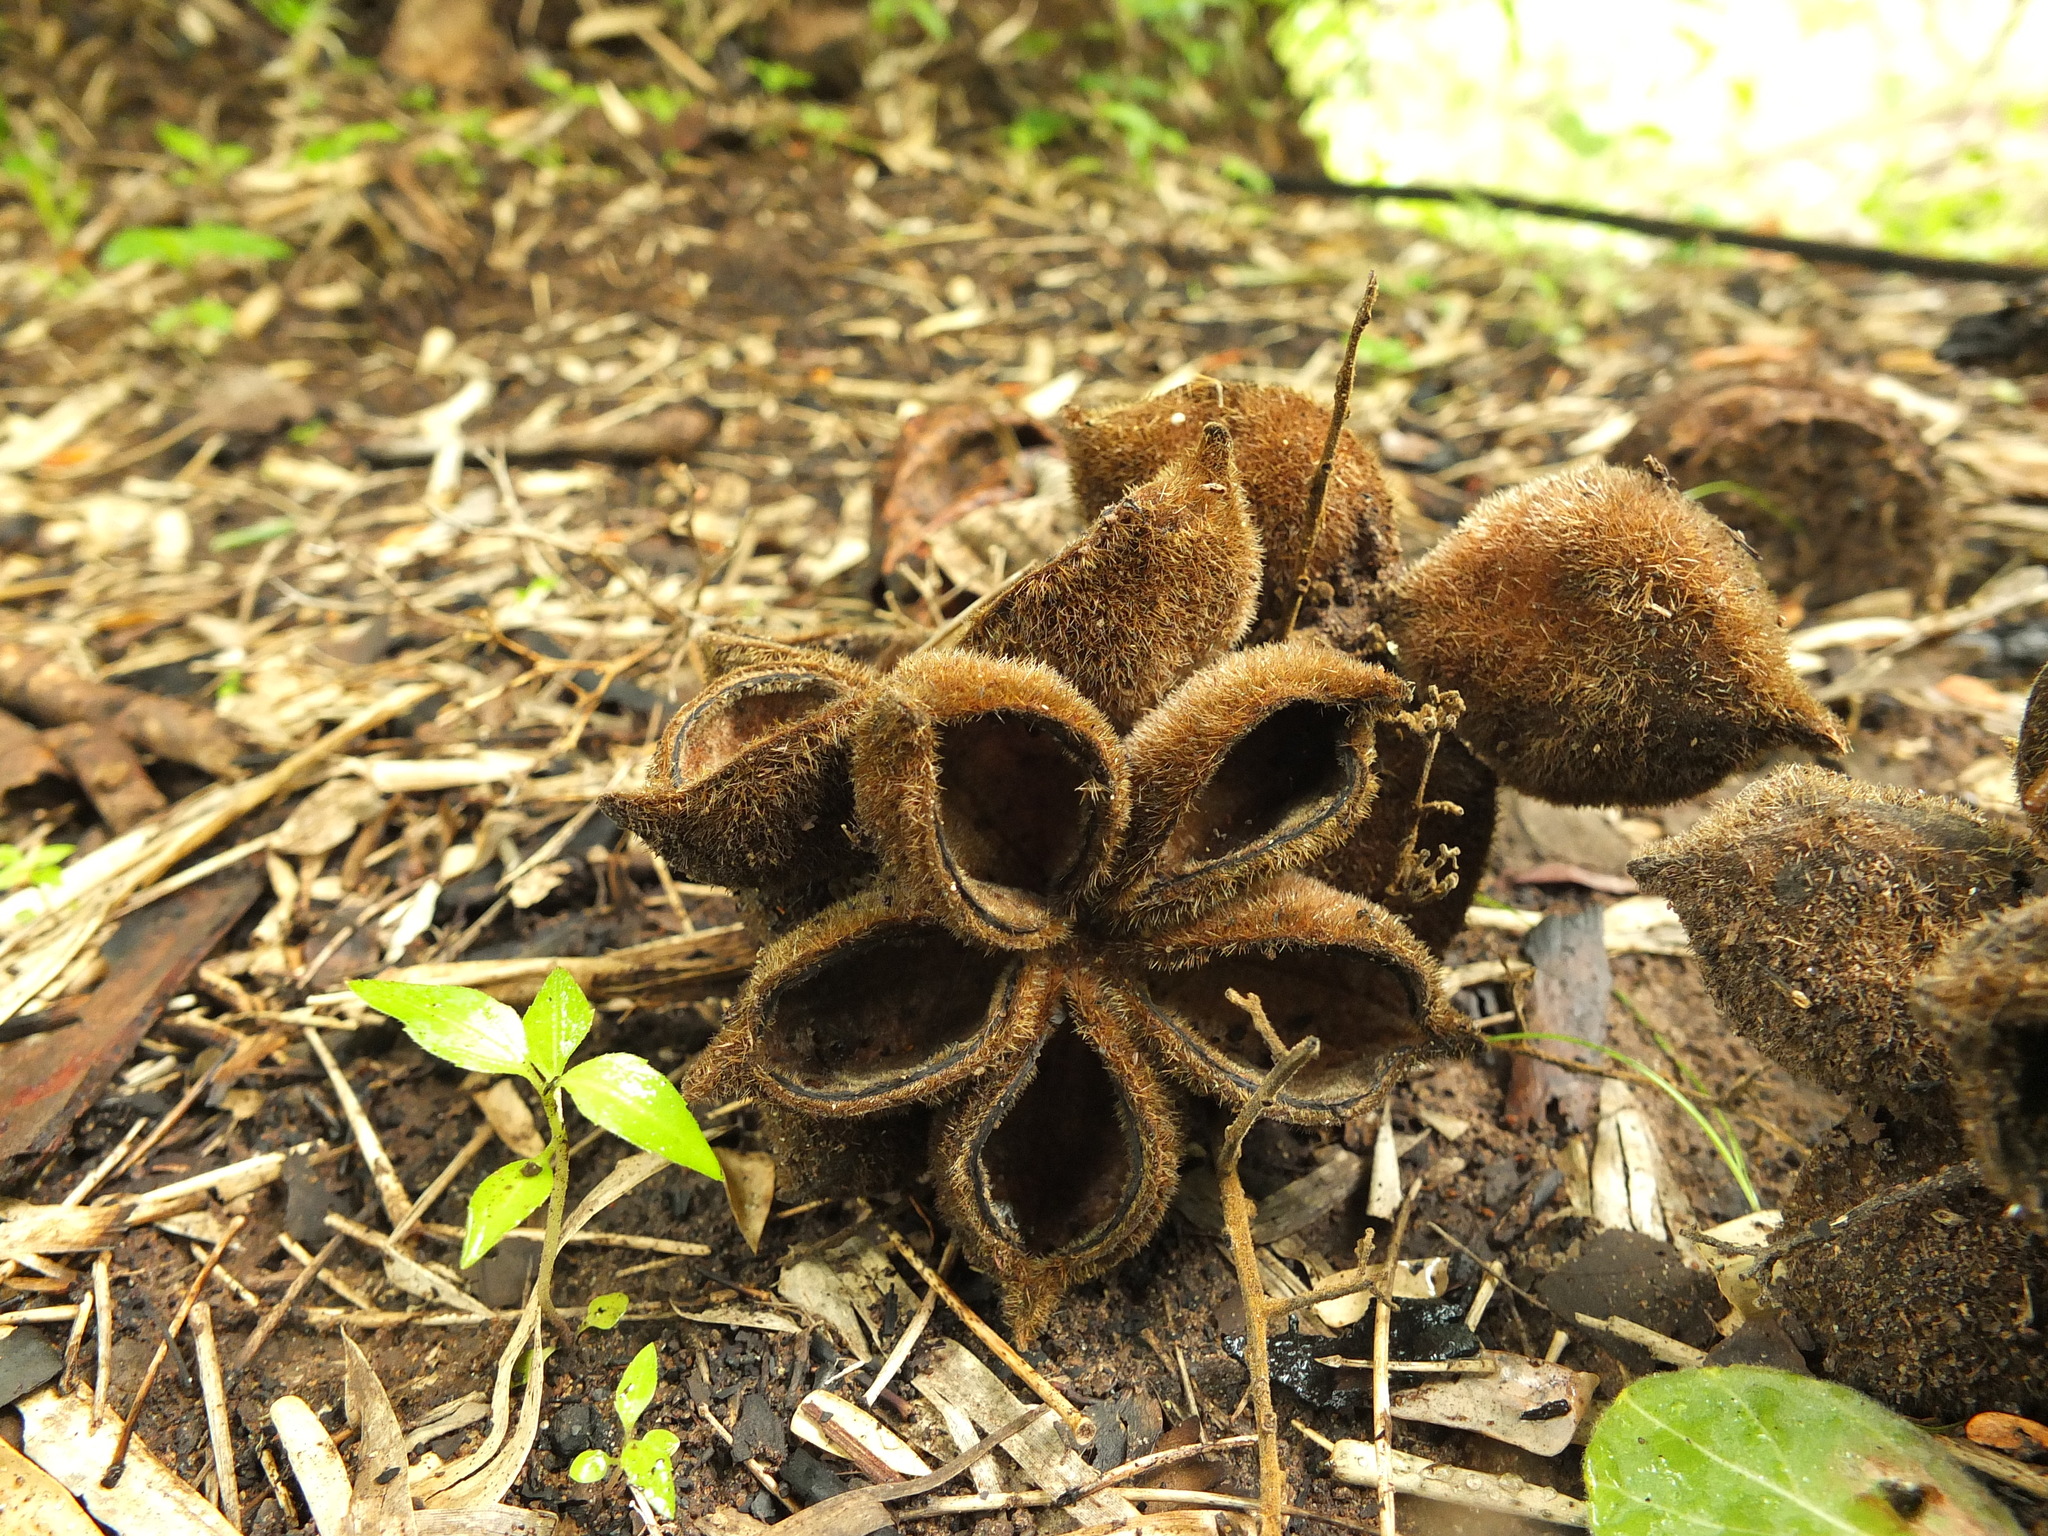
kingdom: Plantae
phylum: Tracheophyta
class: Magnoliopsida
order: Malvales
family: Malvaceae
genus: Sterculia
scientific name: Sterculia urens
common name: Indian-tragacanth
